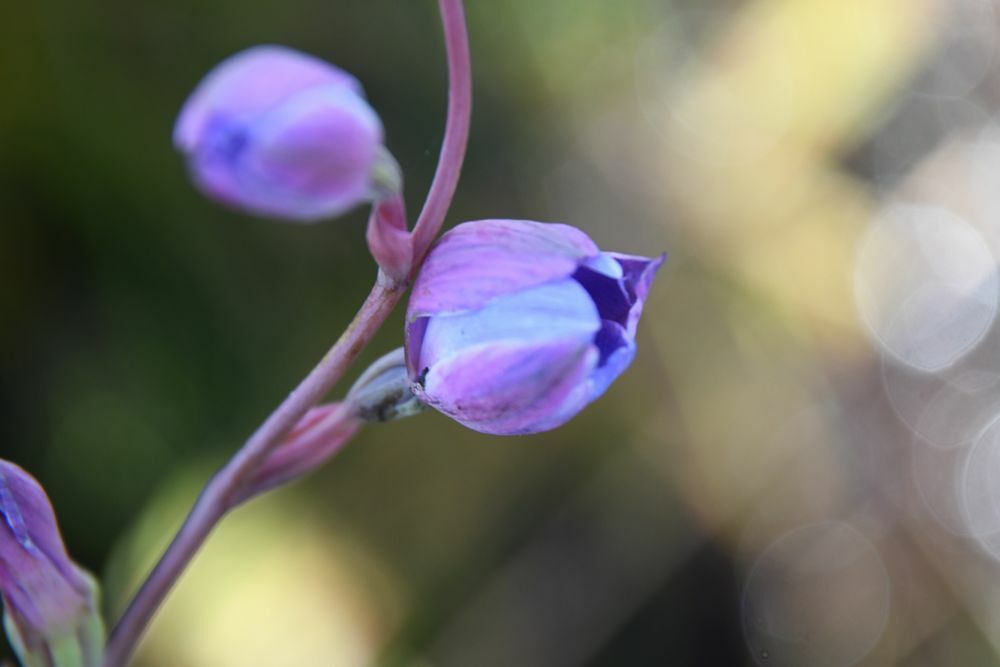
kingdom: Plantae
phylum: Tracheophyta
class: Liliopsida
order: Asparagales
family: Orchidaceae
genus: Thelymitra
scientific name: Thelymitra cornicina
